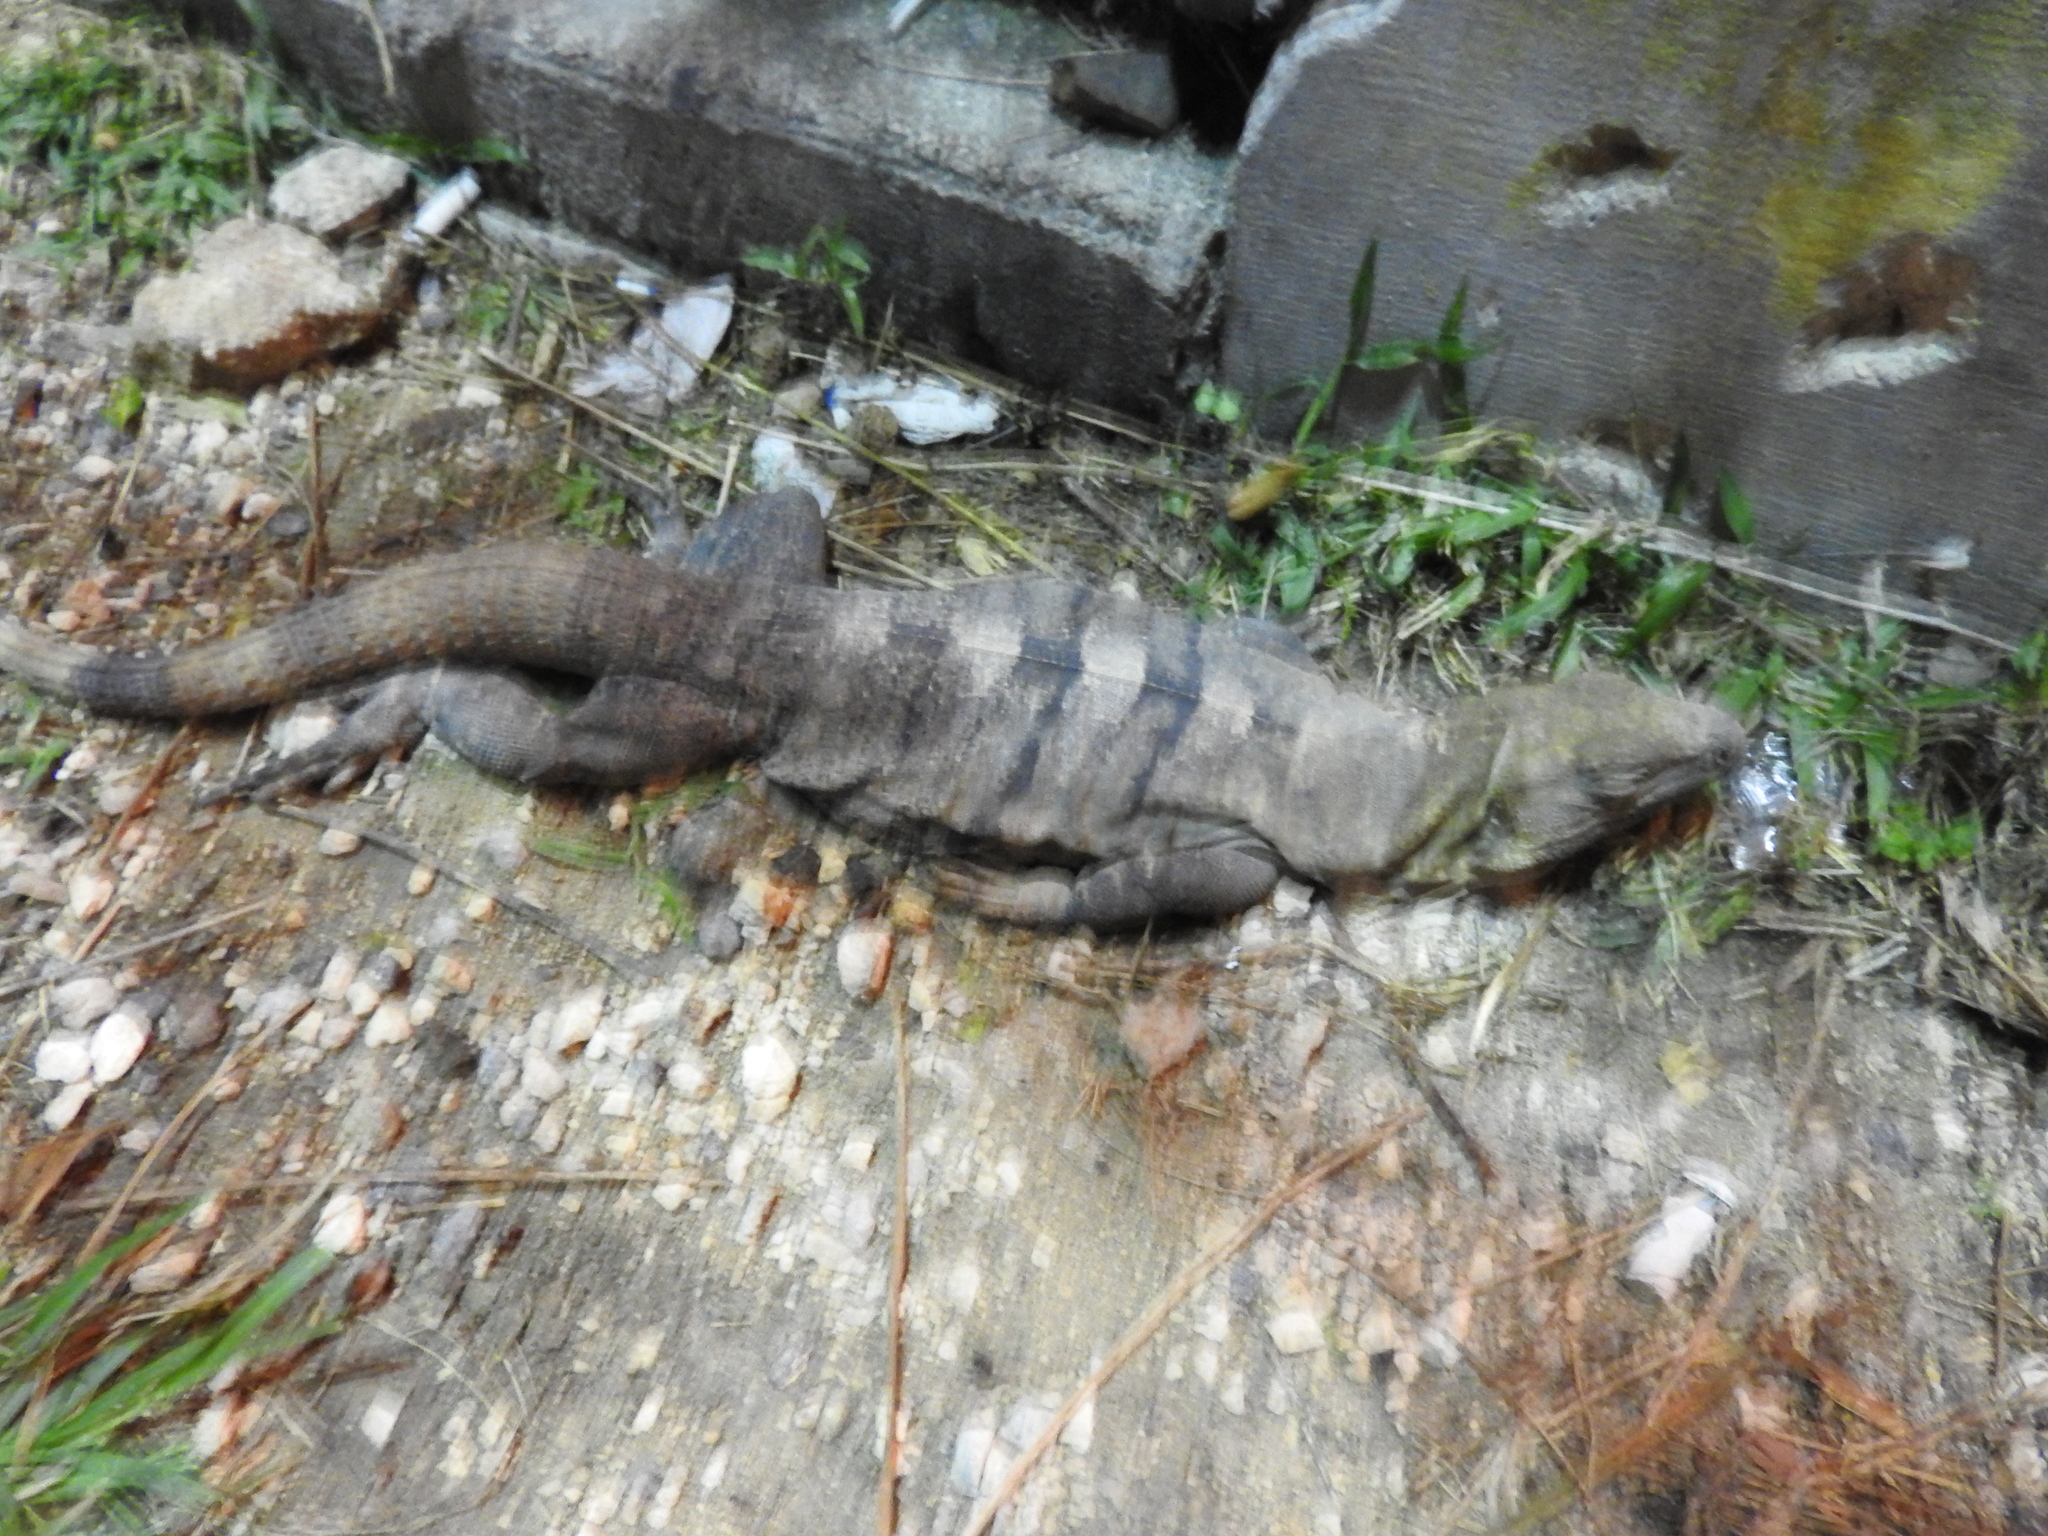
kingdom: Animalia
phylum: Chordata
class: Squamata
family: Iguanidae
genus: Ctenosaura
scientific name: Ctenosaura similis
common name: Black spiny-tailed iguana
